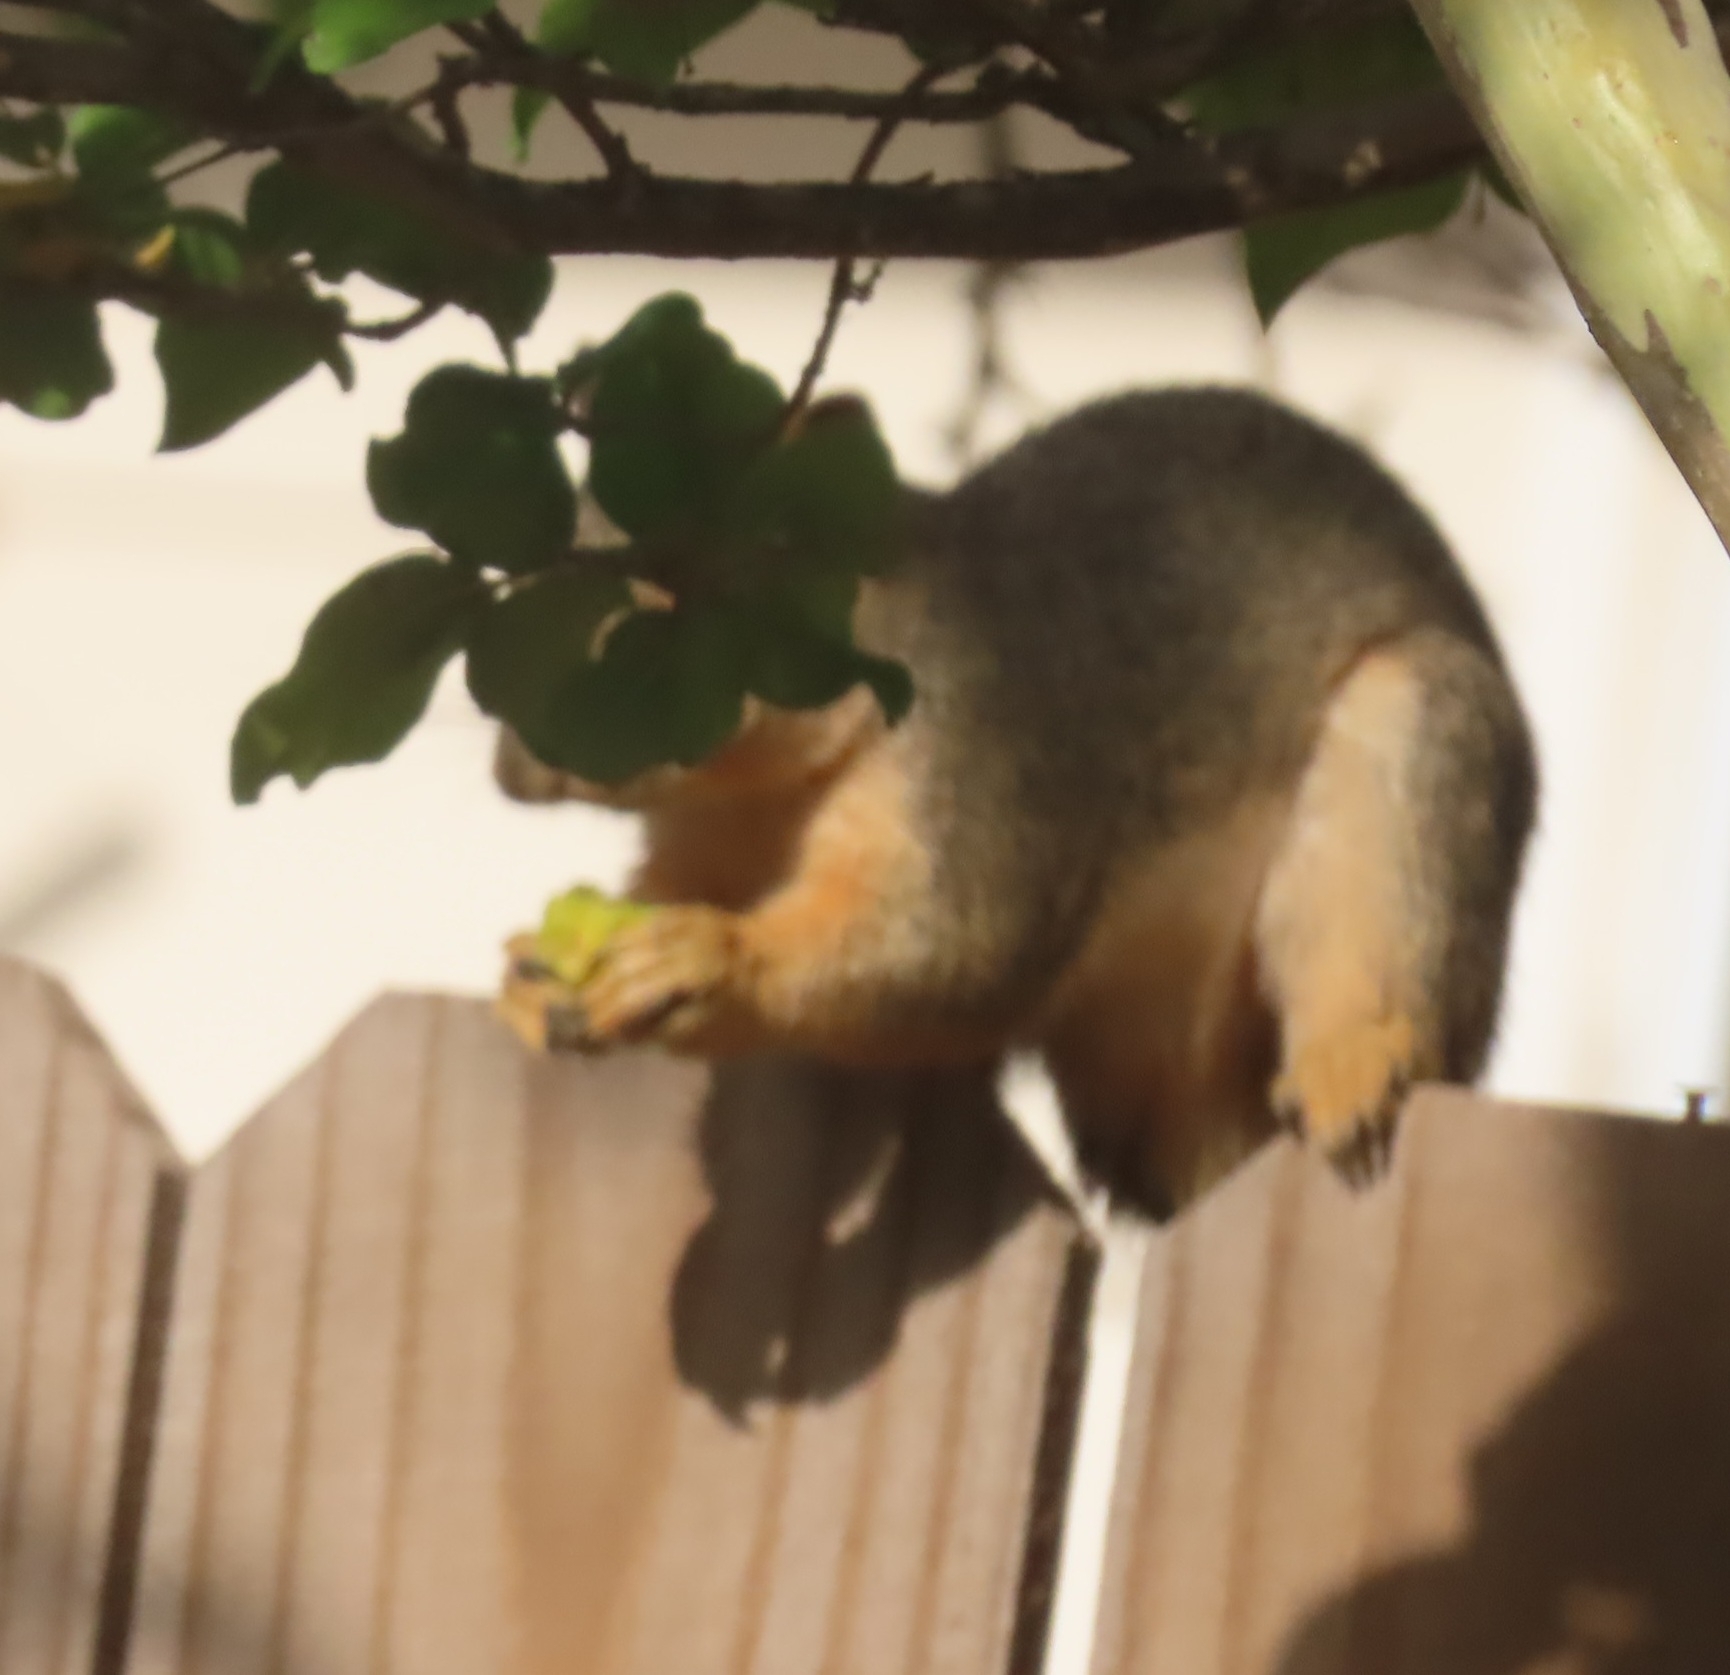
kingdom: Animalia
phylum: Chordata
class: Mammalia
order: Rodentia
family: Sciuridae
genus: Sciurus
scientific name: Sciurus niger
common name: Fox squirrel
